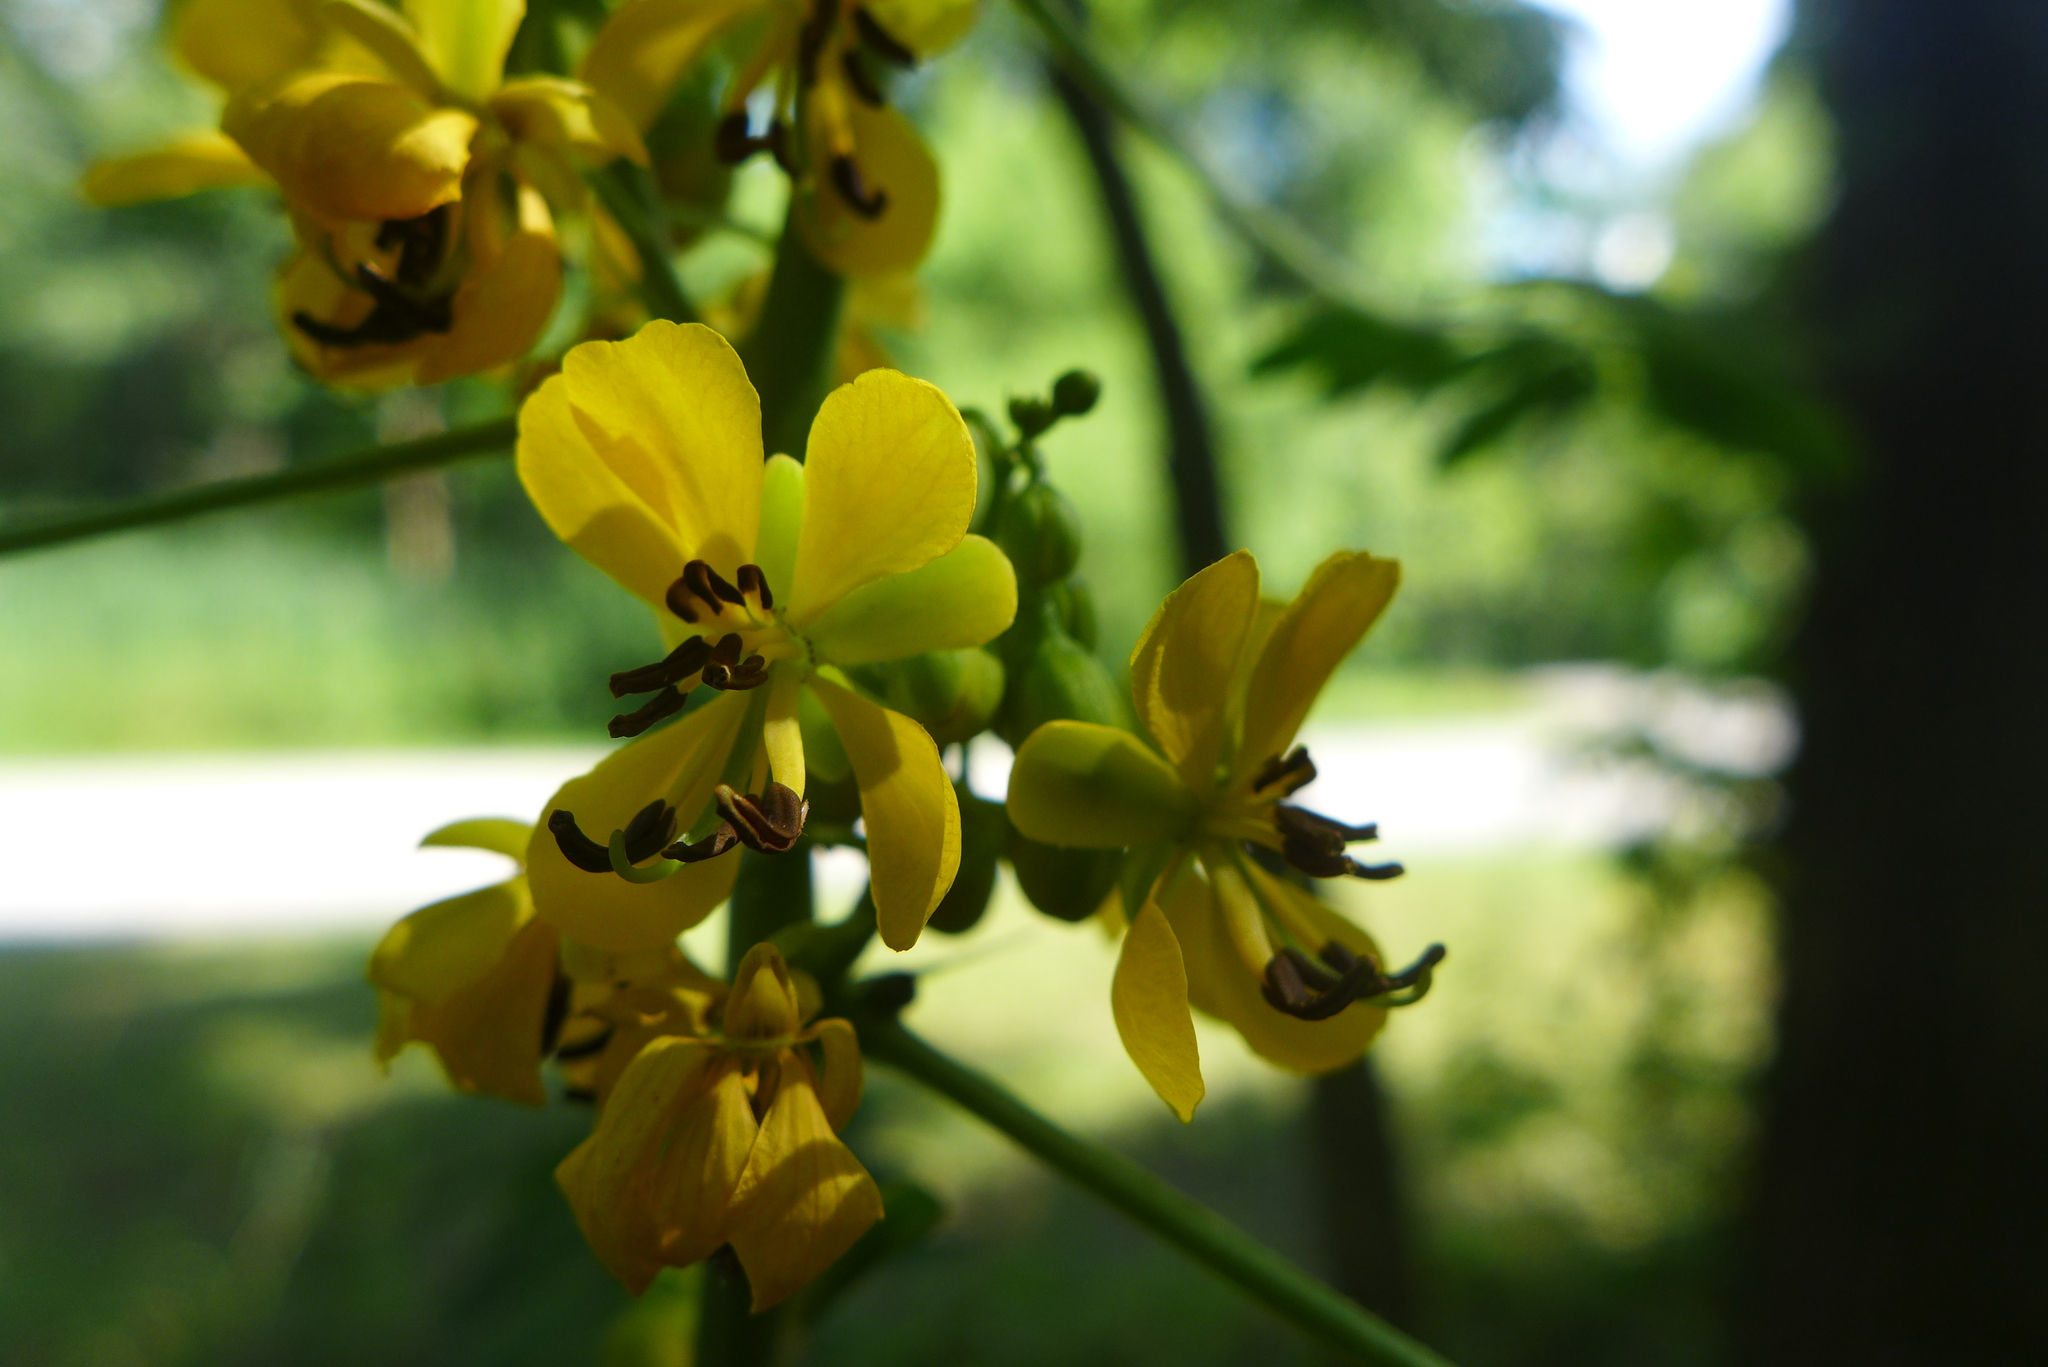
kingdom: Plantae
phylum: Tracheophyta
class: Magnoliopsida
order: Fabales
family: Fabaceae
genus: Senna
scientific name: Senna marilandica
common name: American senna
